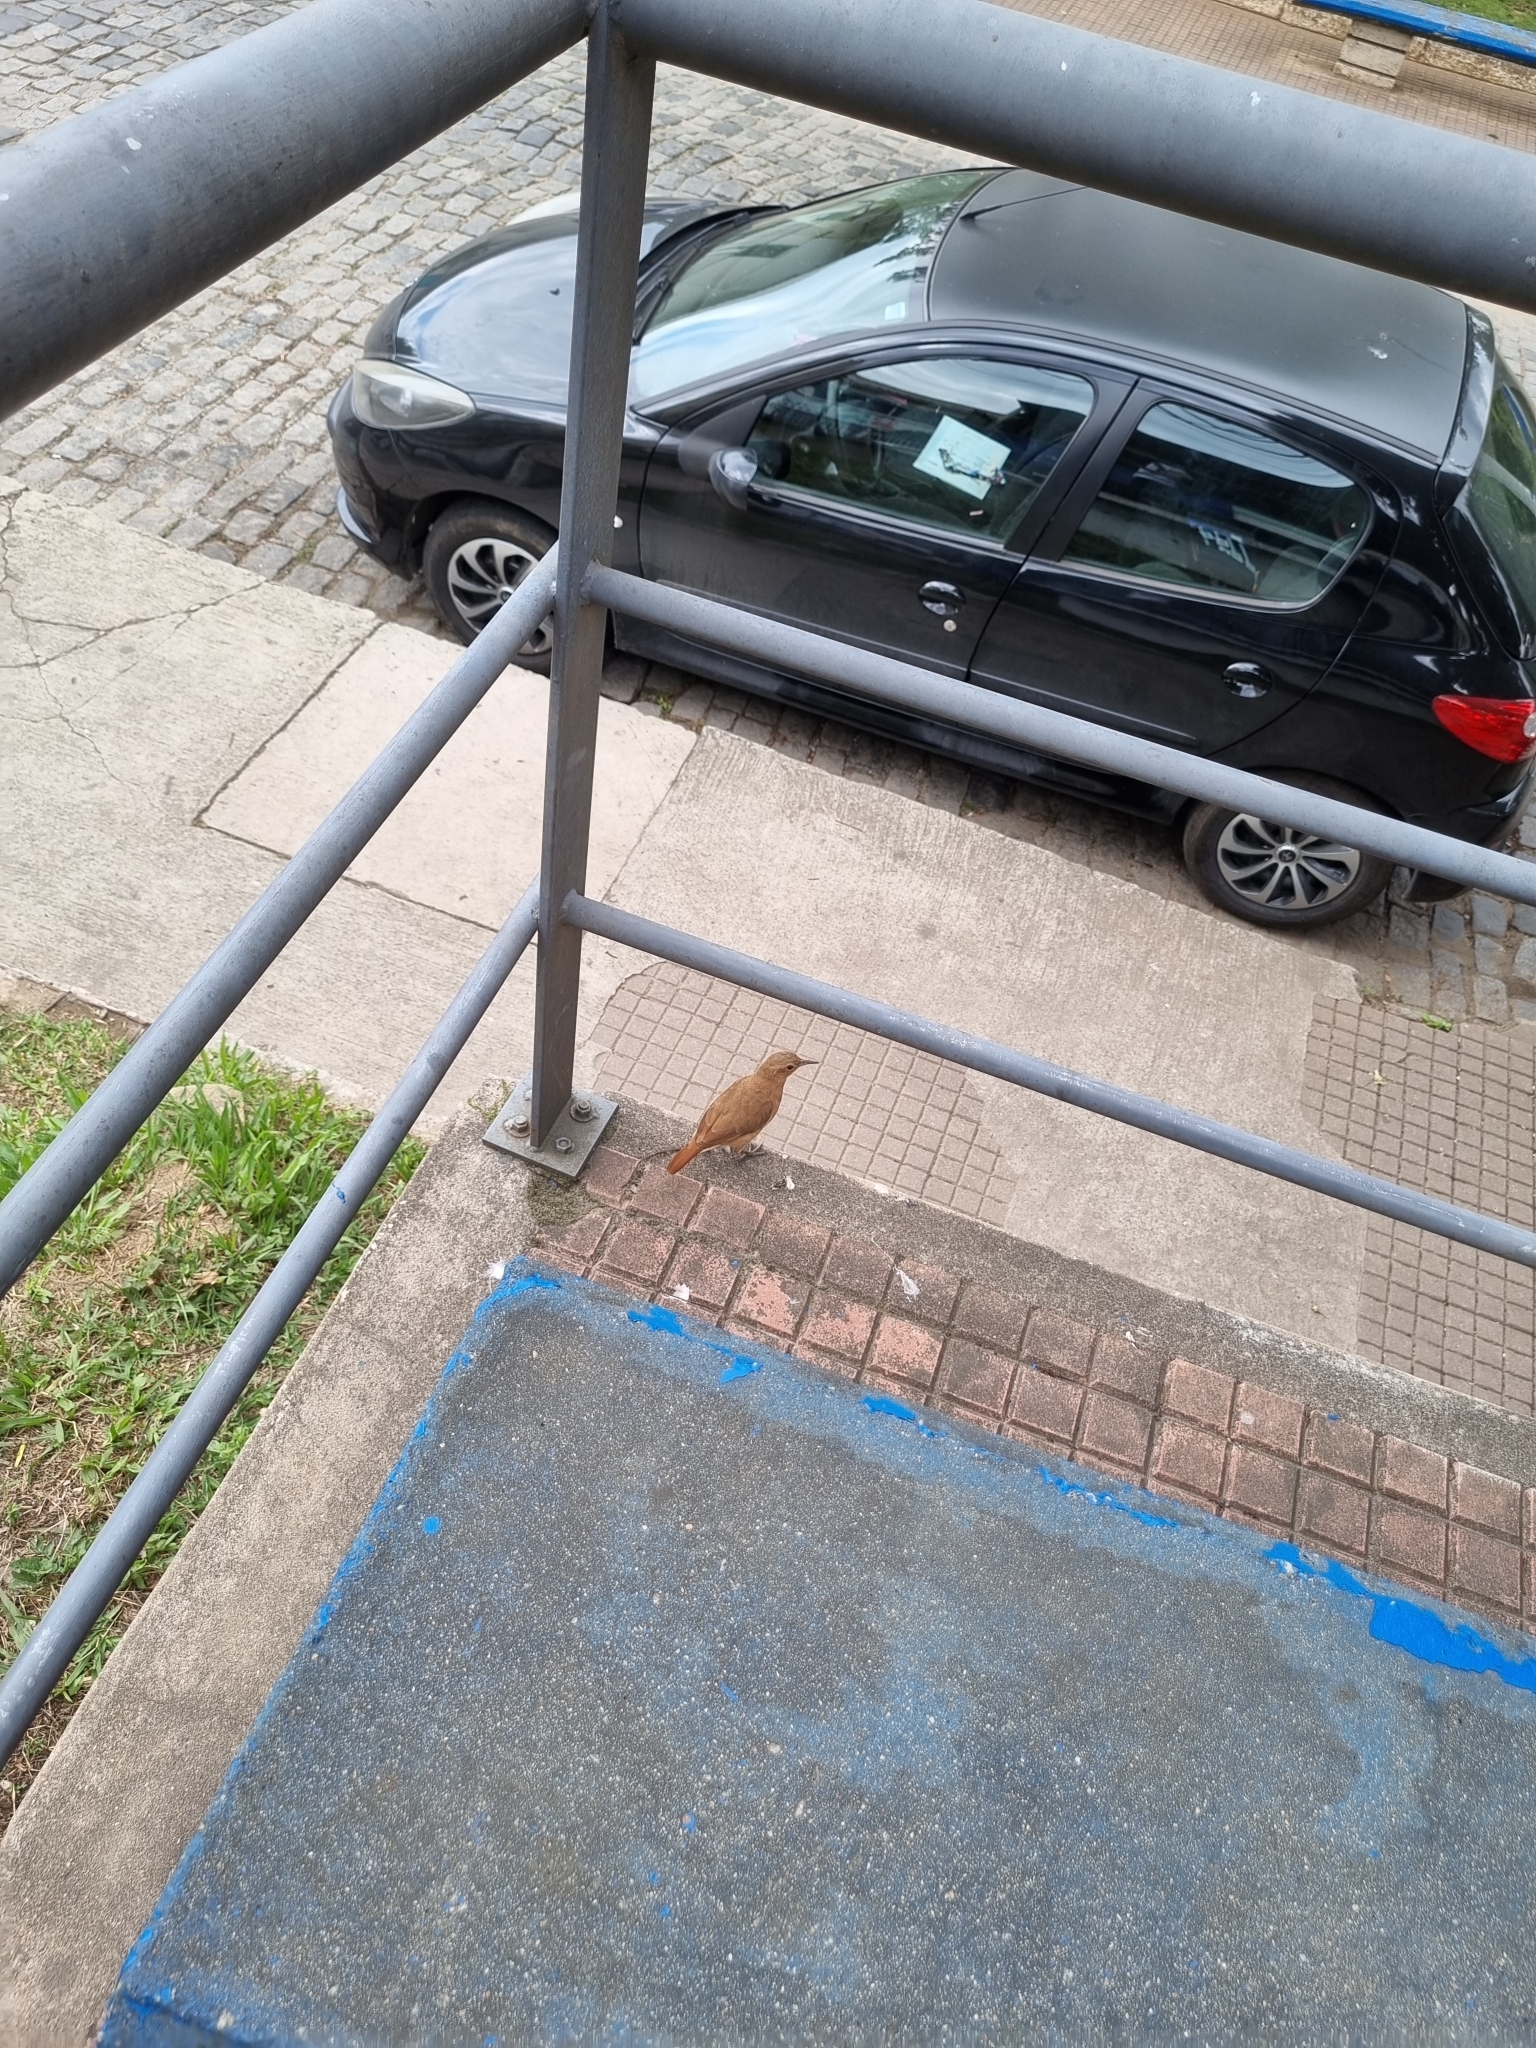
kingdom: Animalia
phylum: Chordata
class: Aves
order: Passeriformes
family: Furnariidae
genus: Furnarius
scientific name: Furnarius rufus
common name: Rufous hornero
